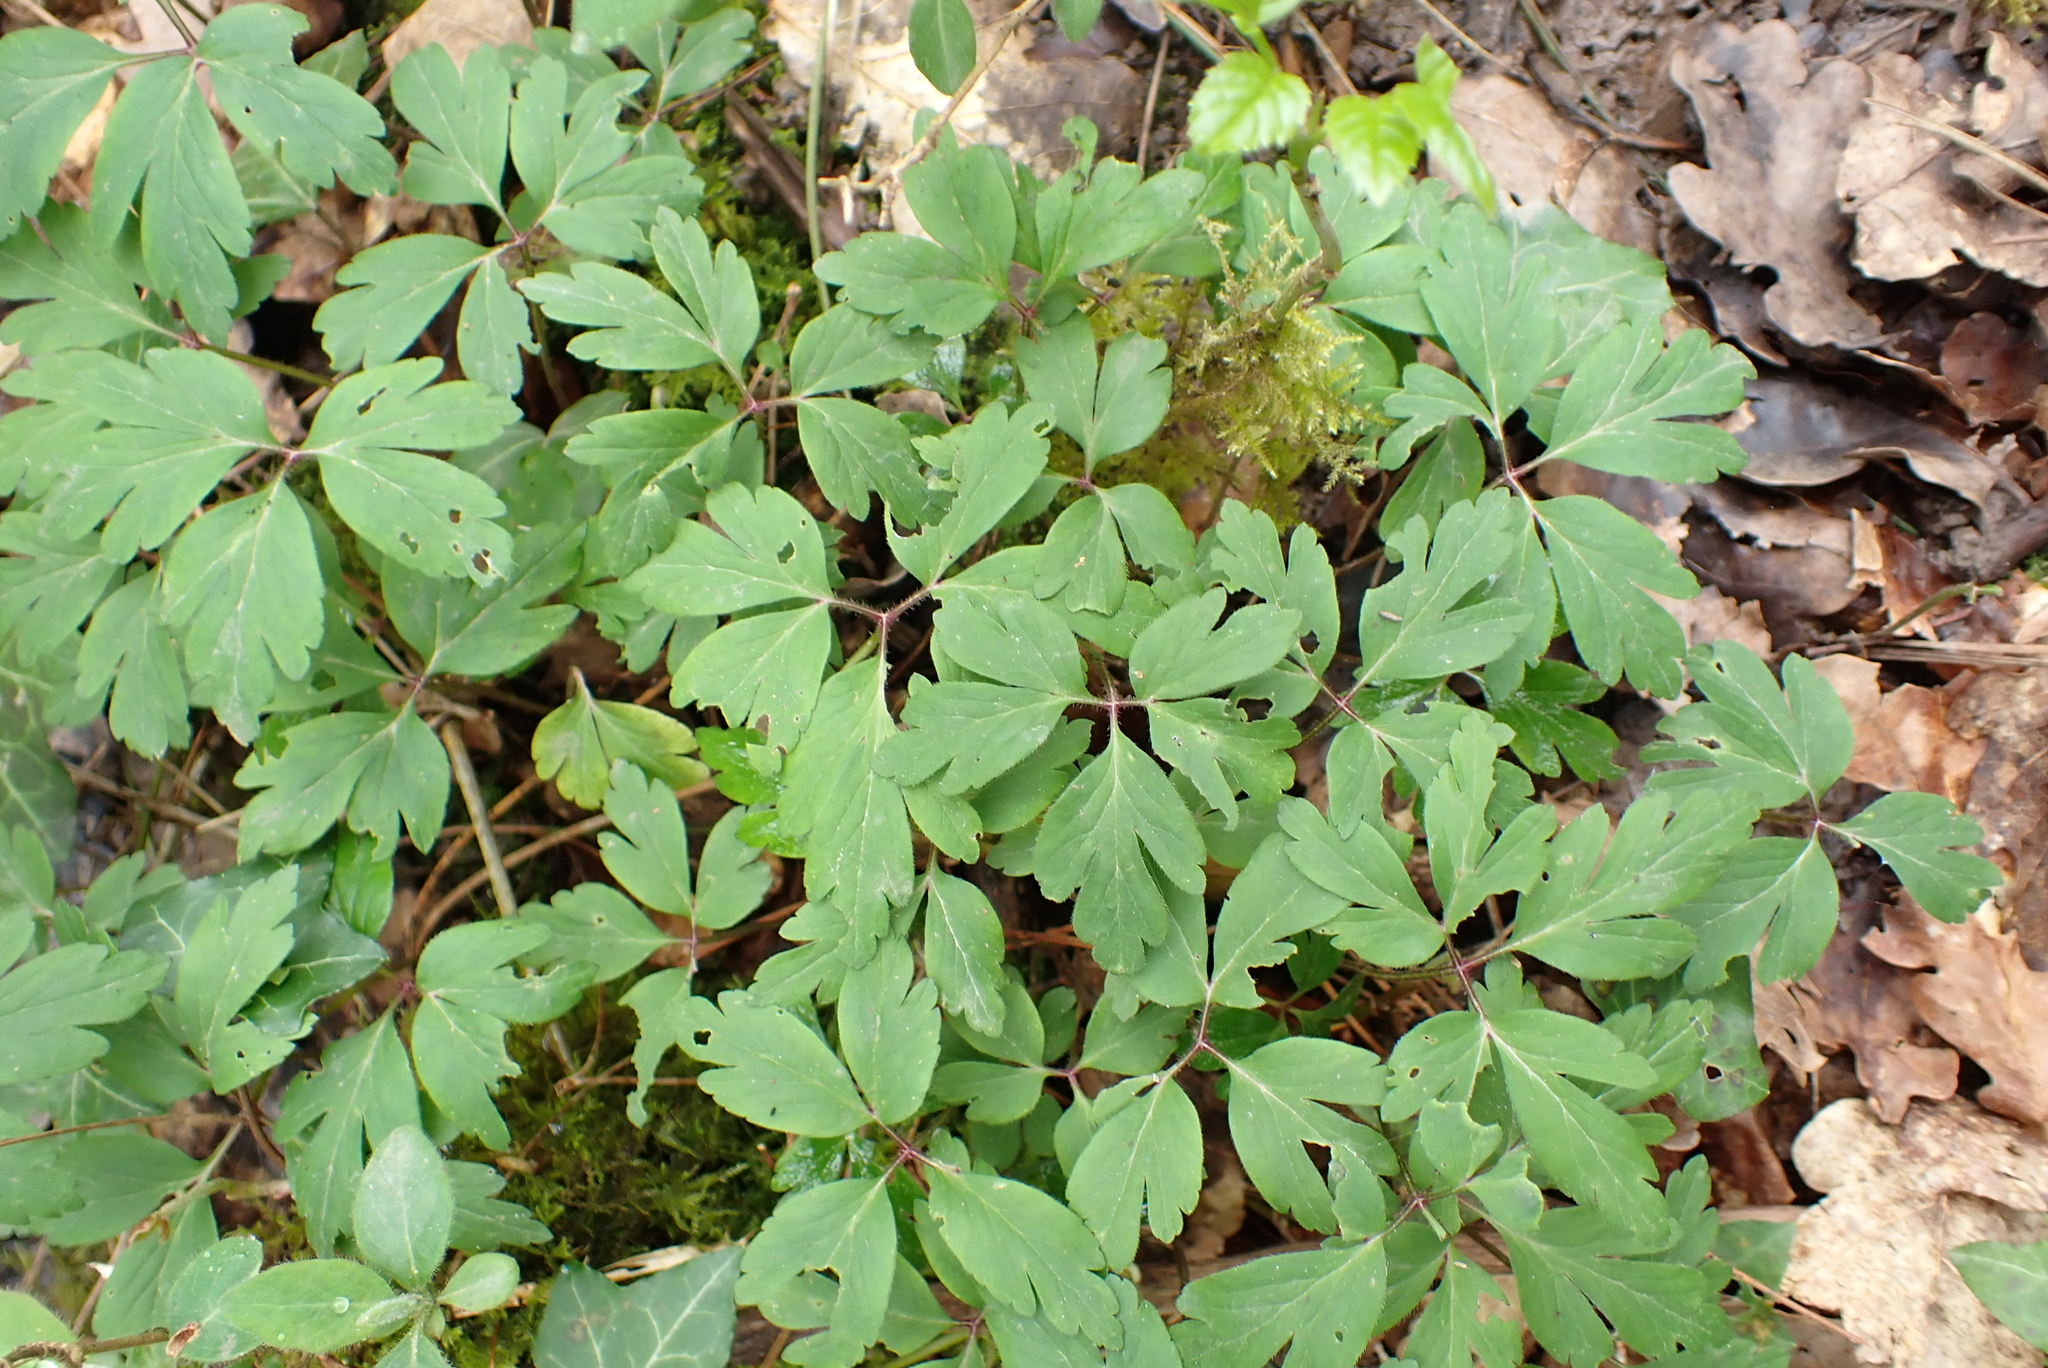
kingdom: Plantae
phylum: Tracheophyta
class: Magnoliopsida
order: Ranunculales
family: Ranunculaceae
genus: Anemone
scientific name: Anemone nemorosa
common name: Wood anemone
